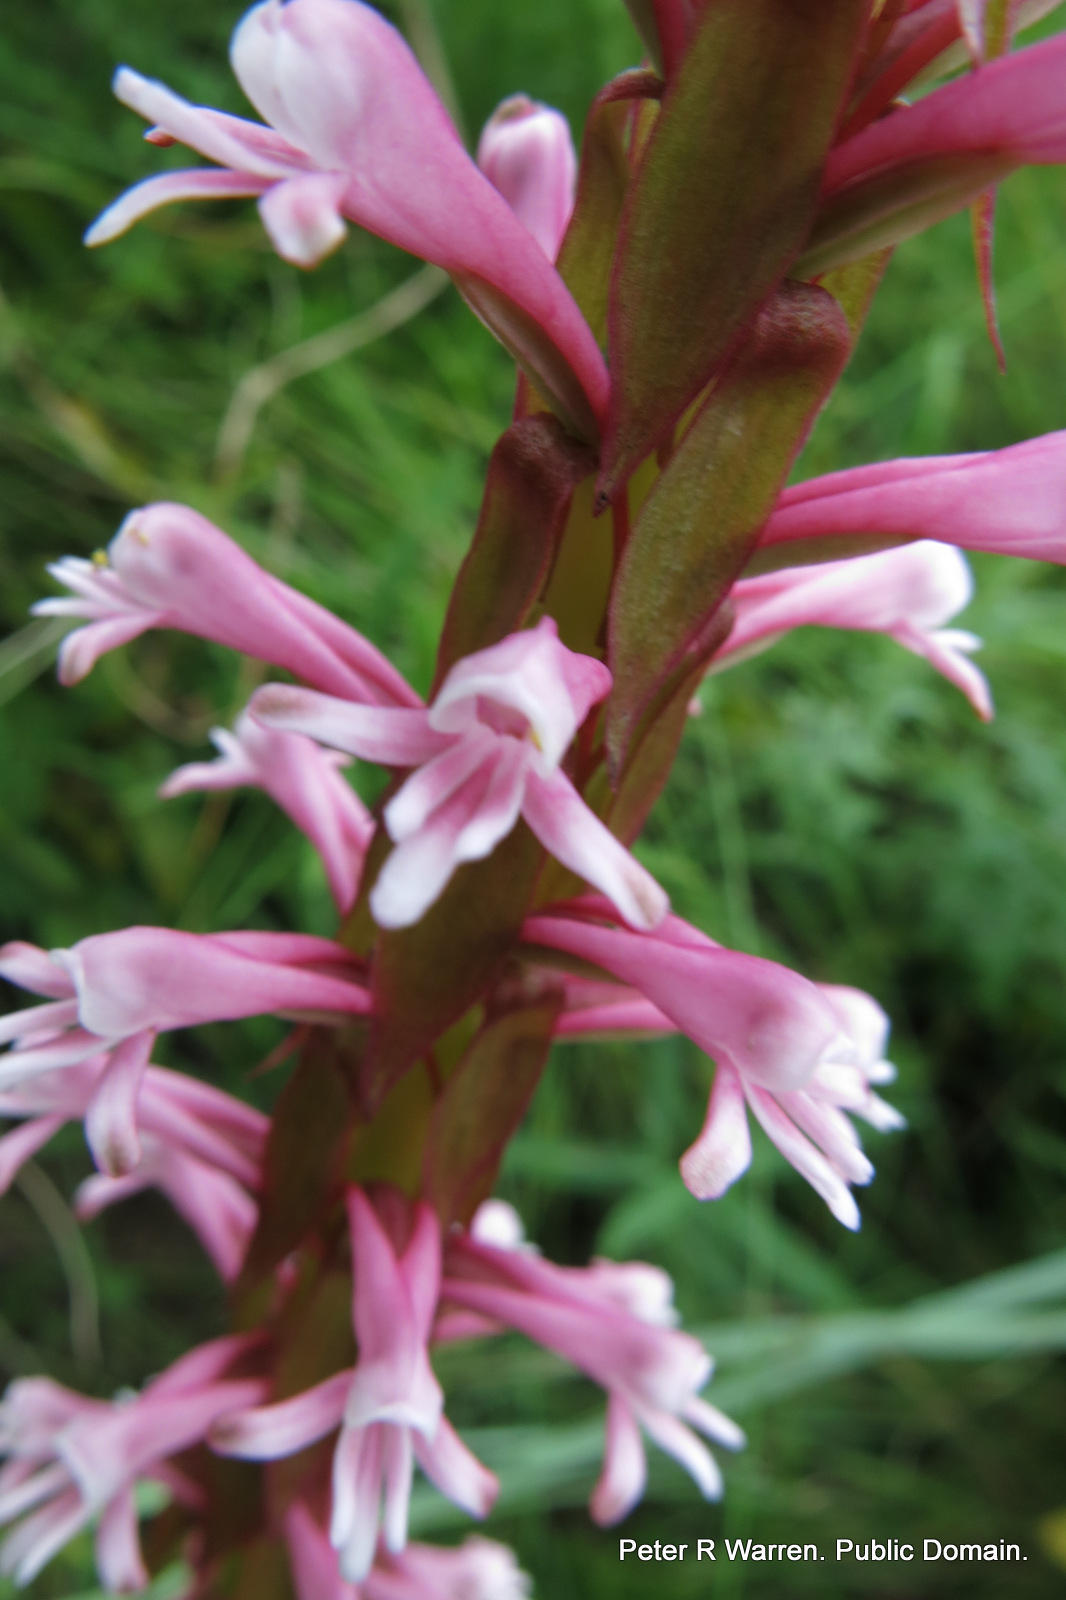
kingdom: Plantae
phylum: Tracheophyta
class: Liliopsida
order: Asparagales
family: Orchidaceae
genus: Satyrium
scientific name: Satyrium macrophyllum
